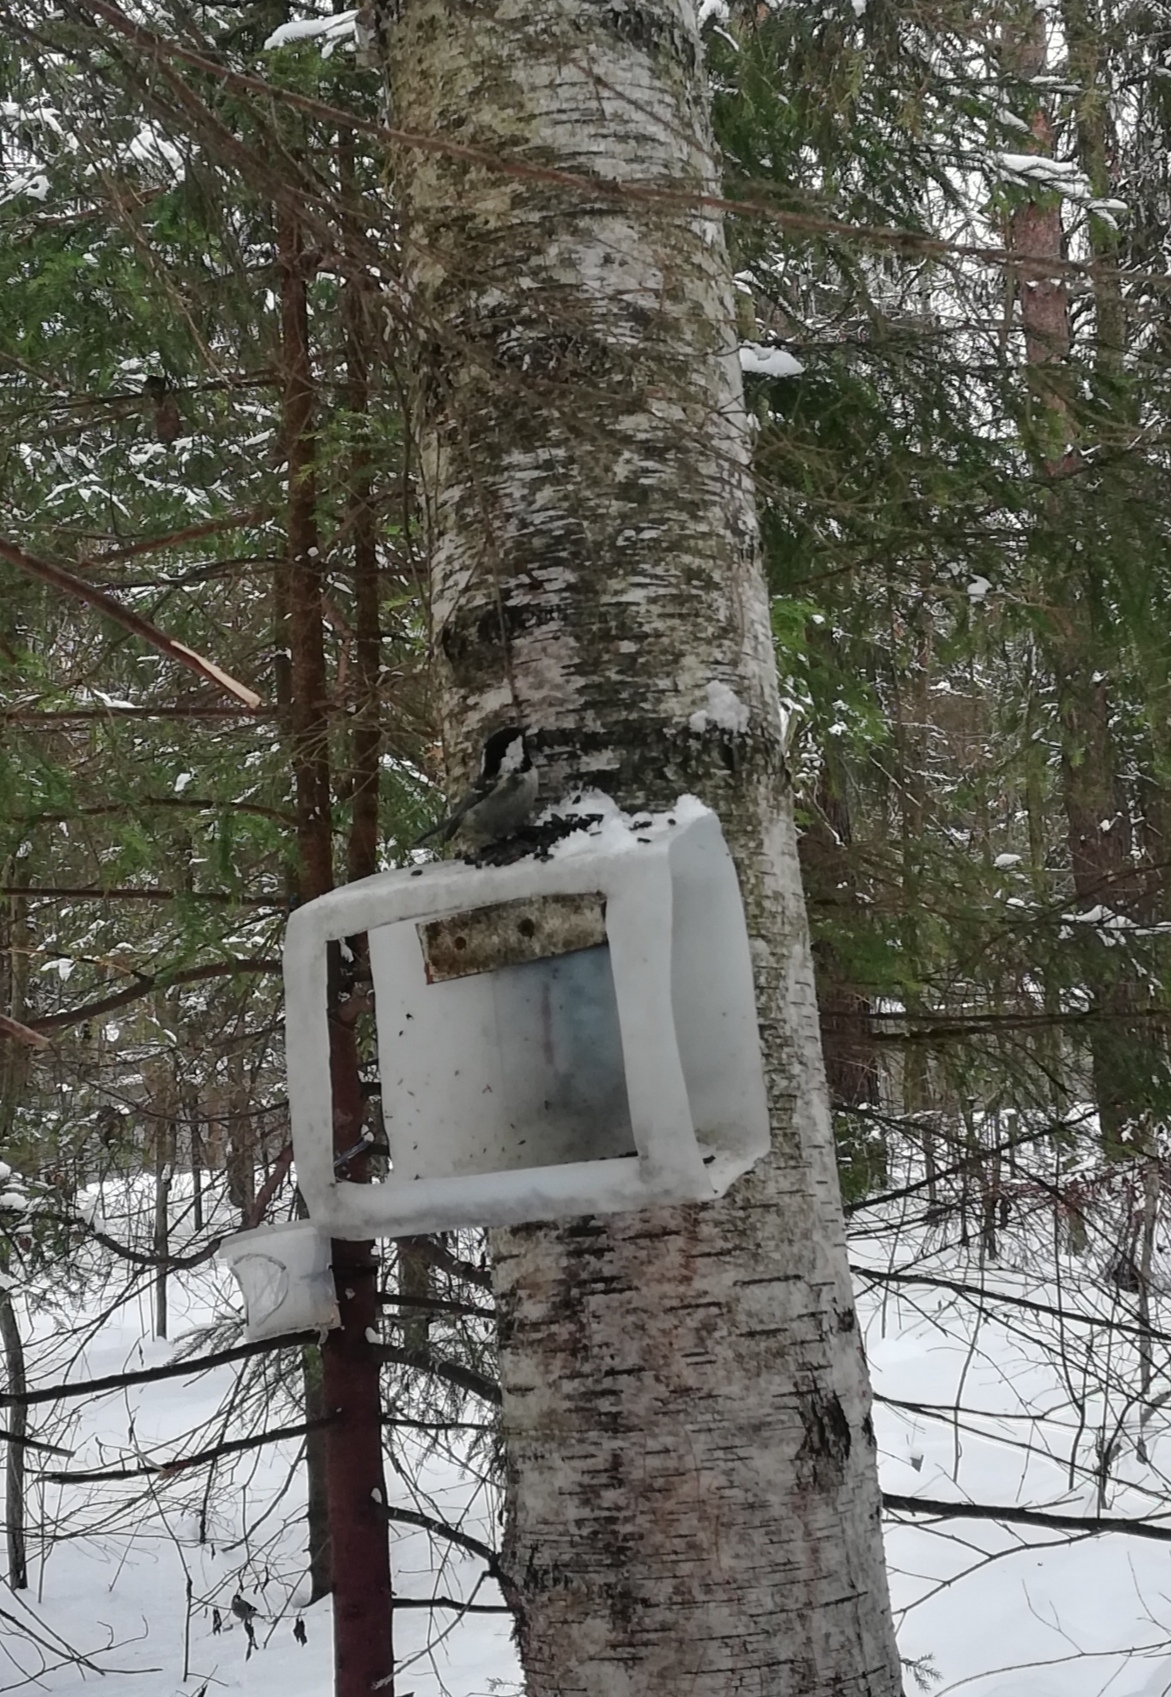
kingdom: Animalia
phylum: Chordata
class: Aves
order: Passeriformes
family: Paridae
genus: Periparus
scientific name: Periparus ater
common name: Coal tit
